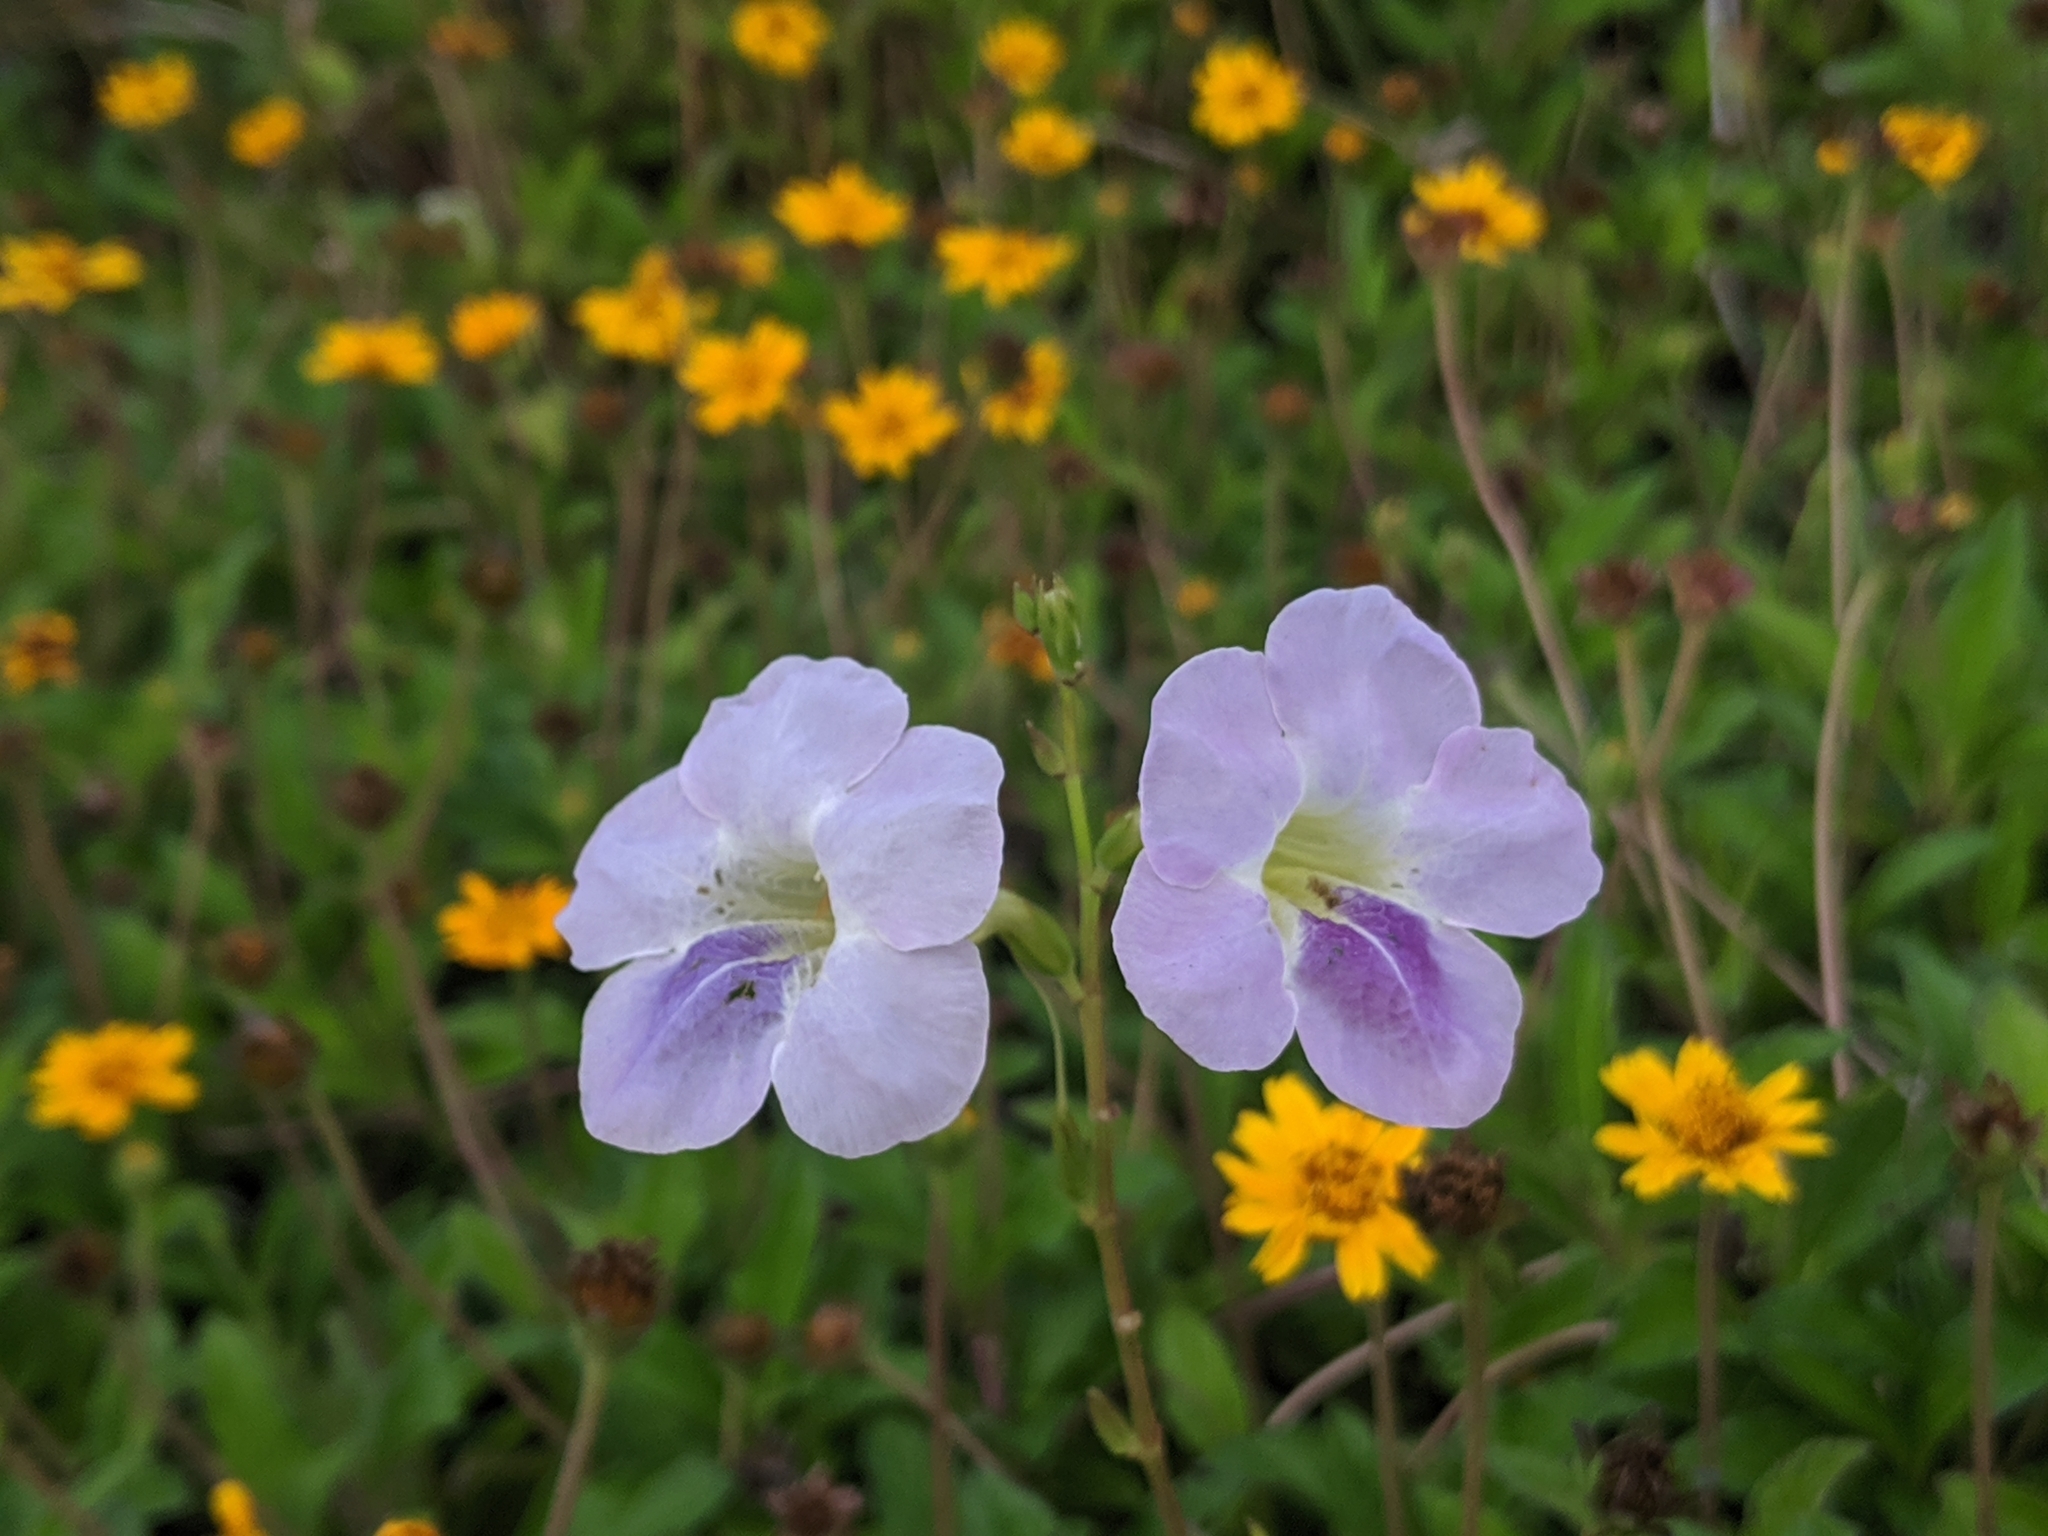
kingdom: Plantae
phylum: Tracheophyta
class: Magnoliopsida
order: Lamiales
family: Acanthaceae
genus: Asystasia
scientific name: Asystasia gangetica
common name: Chinese violet
